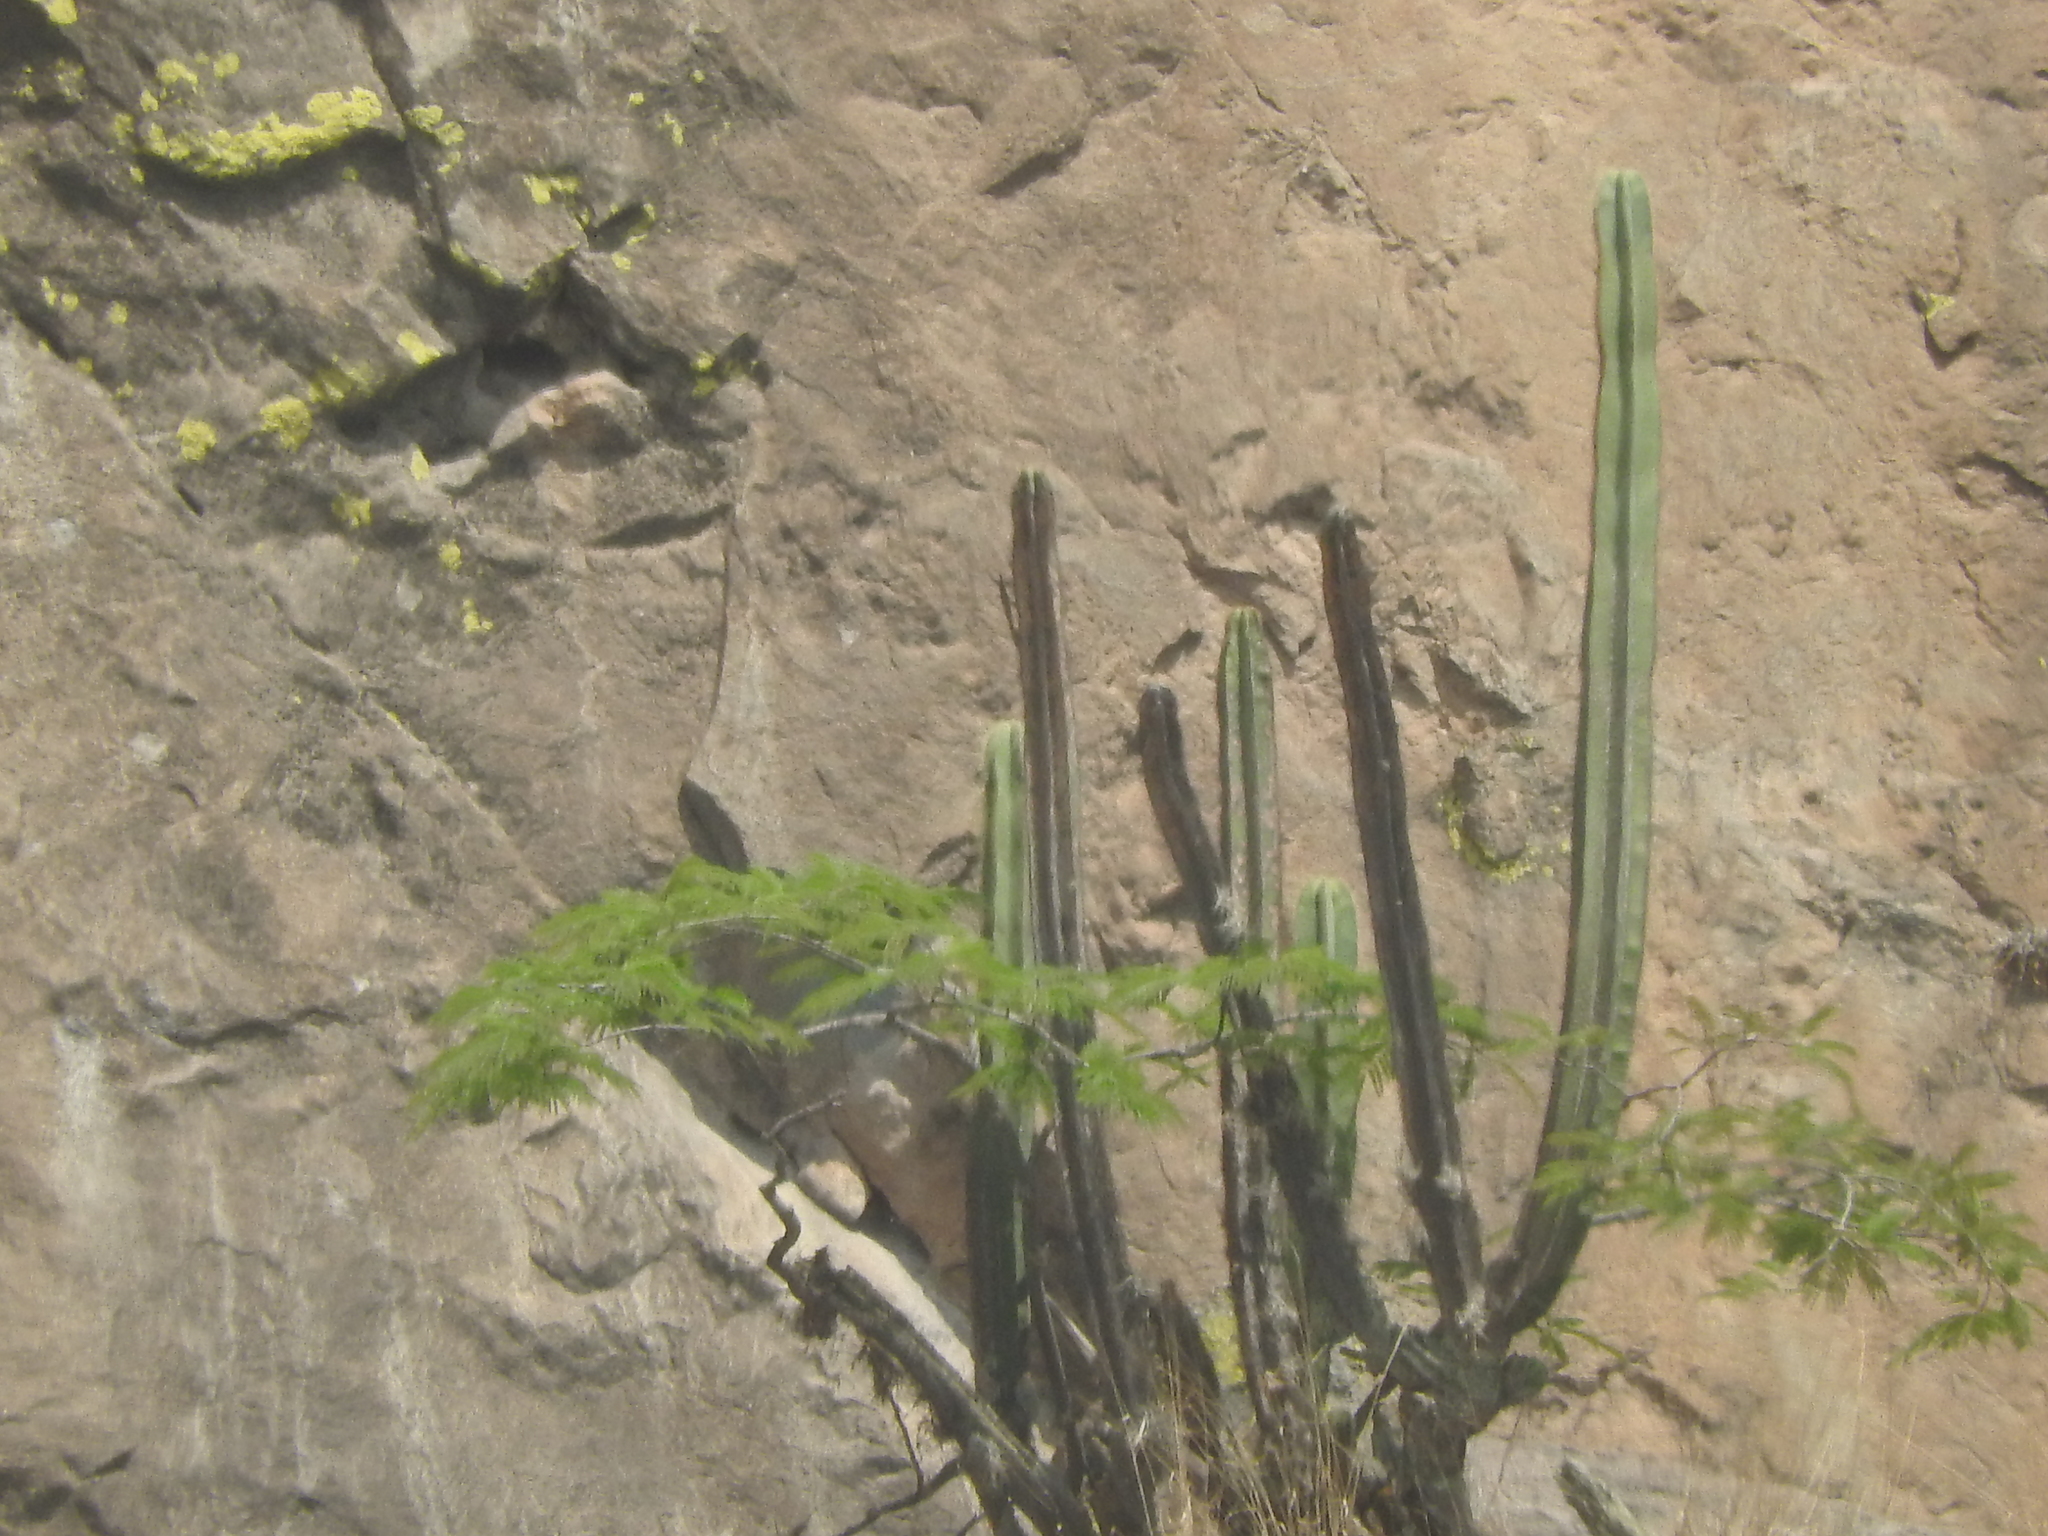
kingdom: Plantae
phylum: Tracheophyta
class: Magnoliopsida
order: Caryophyllales
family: Cactaceae
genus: Stenocereus
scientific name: Stenocereus dumortieri
